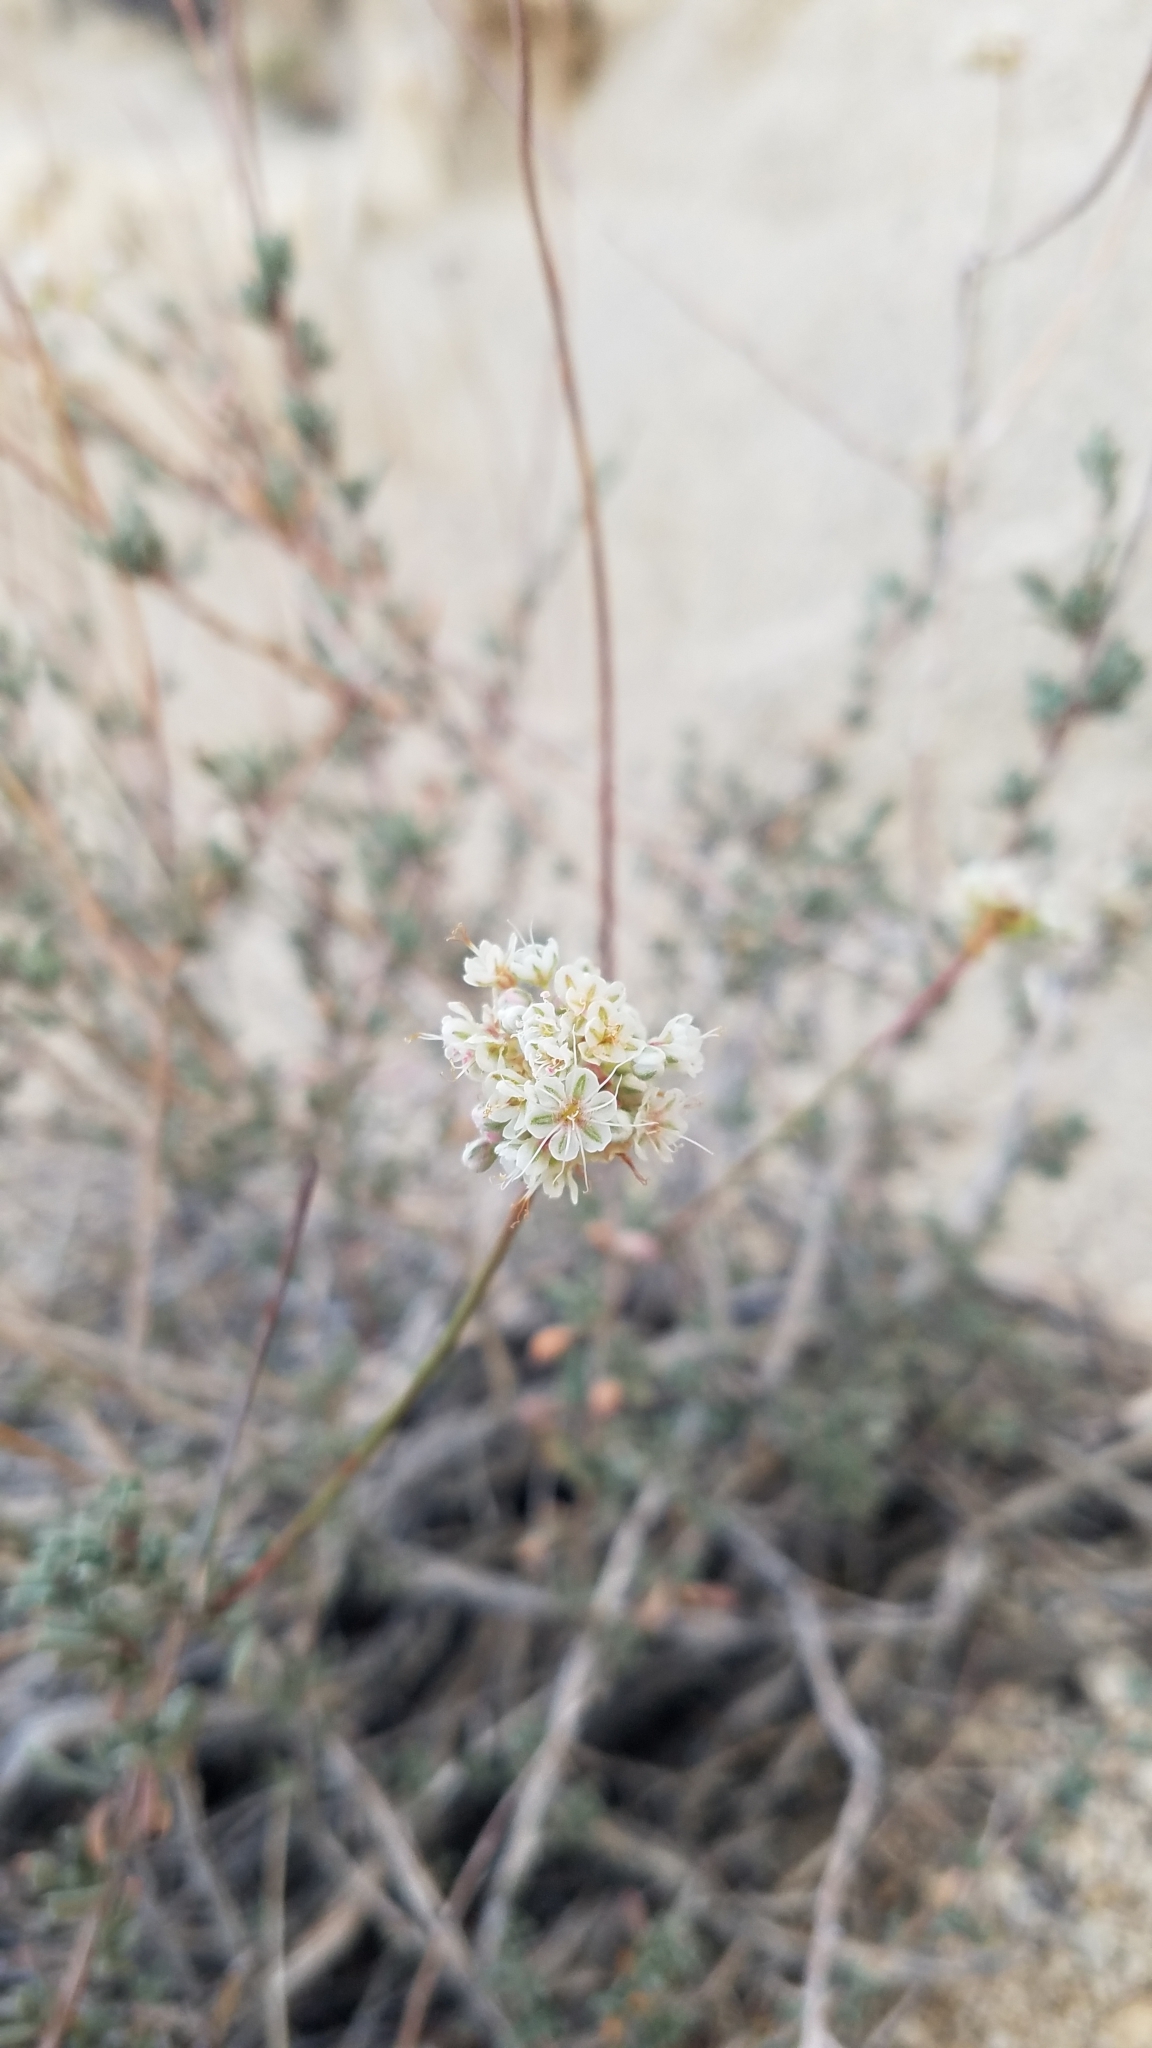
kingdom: Plantae
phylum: Tracheophyta
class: Magnoliopsida
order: Caryophyllales
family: Polygonaceae
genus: Eriogonum
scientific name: Eriogonum fasciculatum
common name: California wild buckwheat
